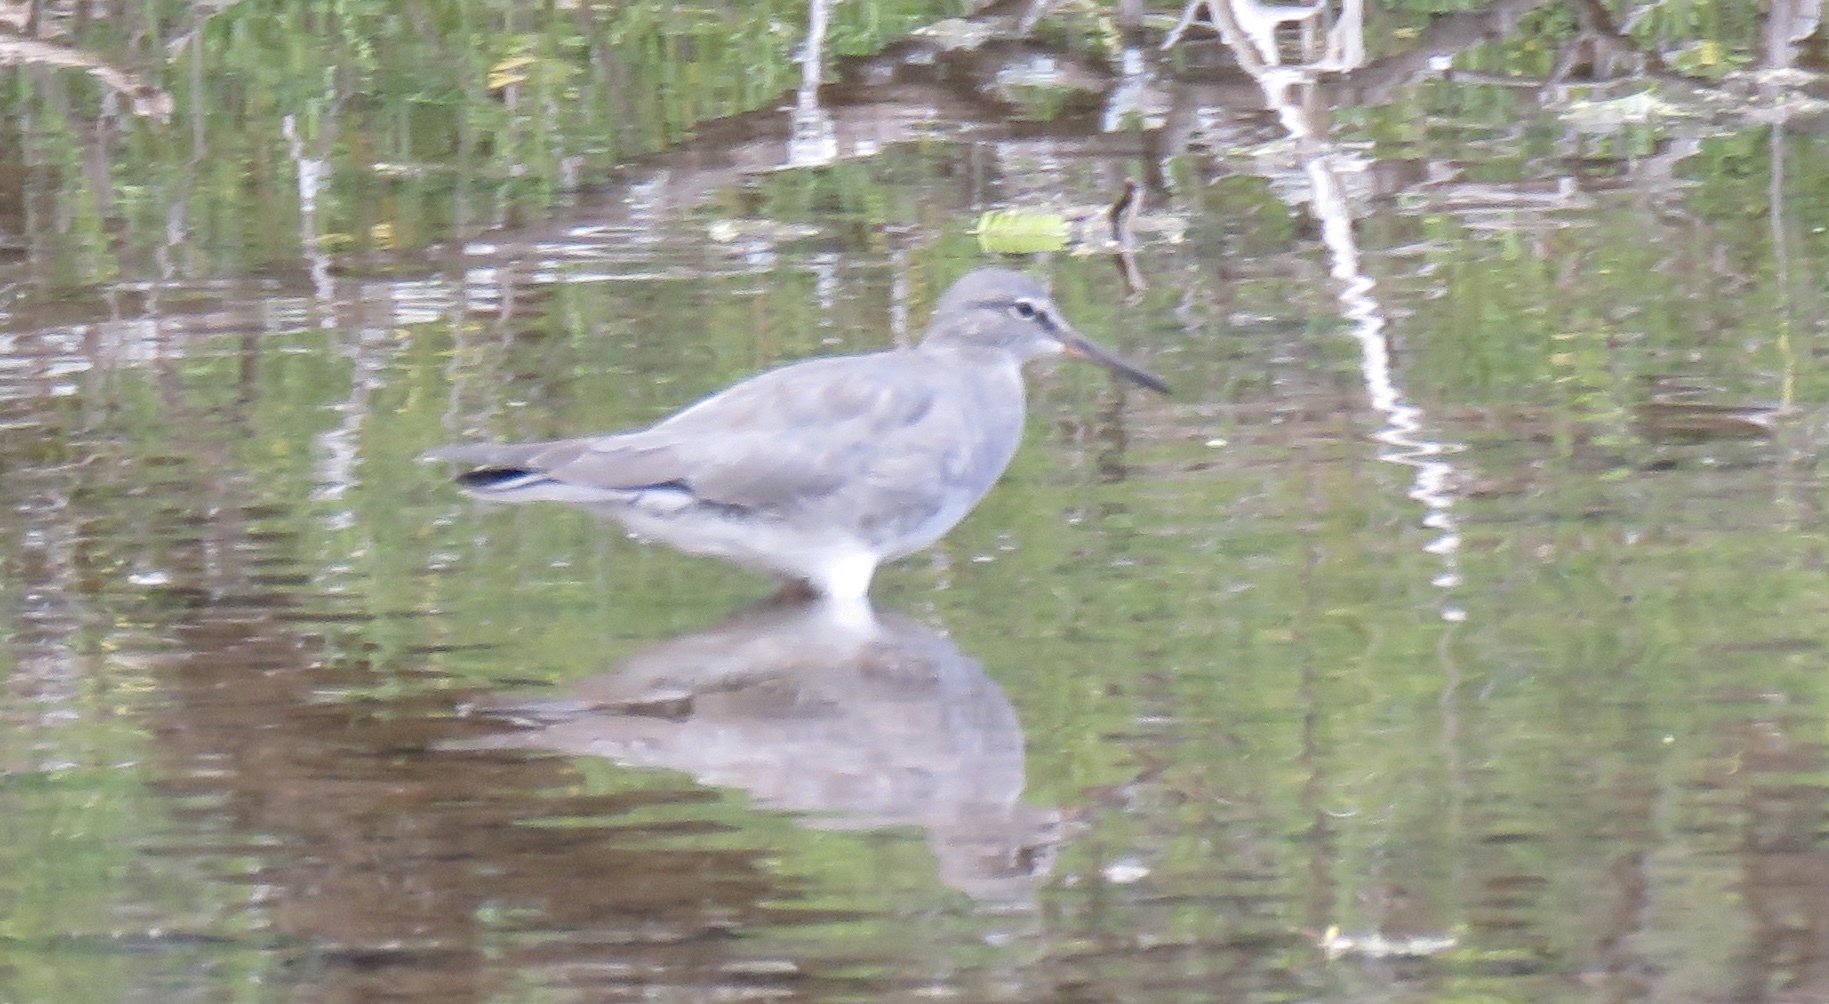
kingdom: Animalia
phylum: Chordata
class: Aves
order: Charadriiformes
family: Scolopacidae
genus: Tringa
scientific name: Tringa incana
